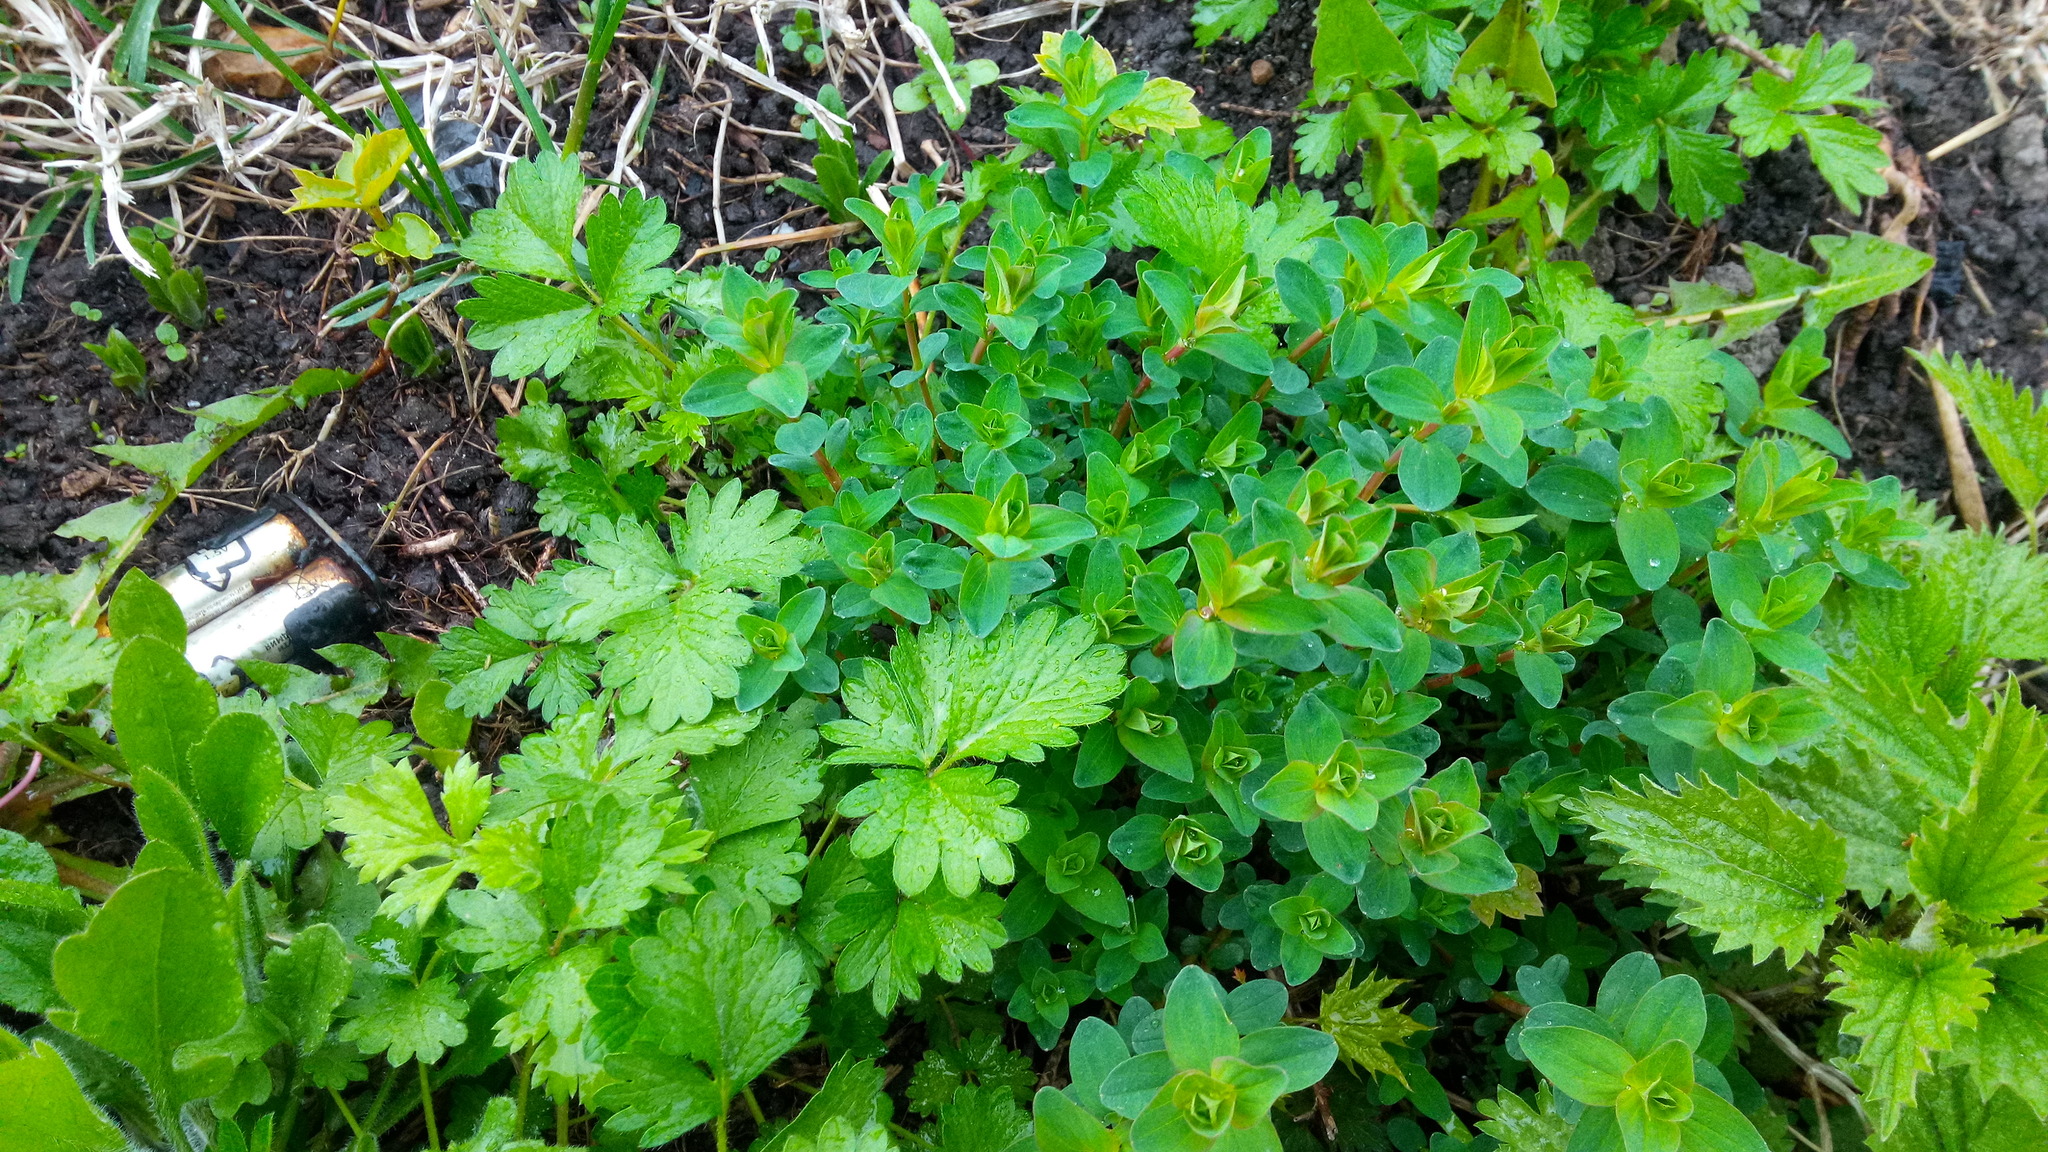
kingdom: Plantae
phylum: Tracheophyta
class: Magnoliopsida
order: Malpighiales
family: Hypericaceae
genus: Hypericum
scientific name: Hypericum perforatum
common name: Common st. johnswort
